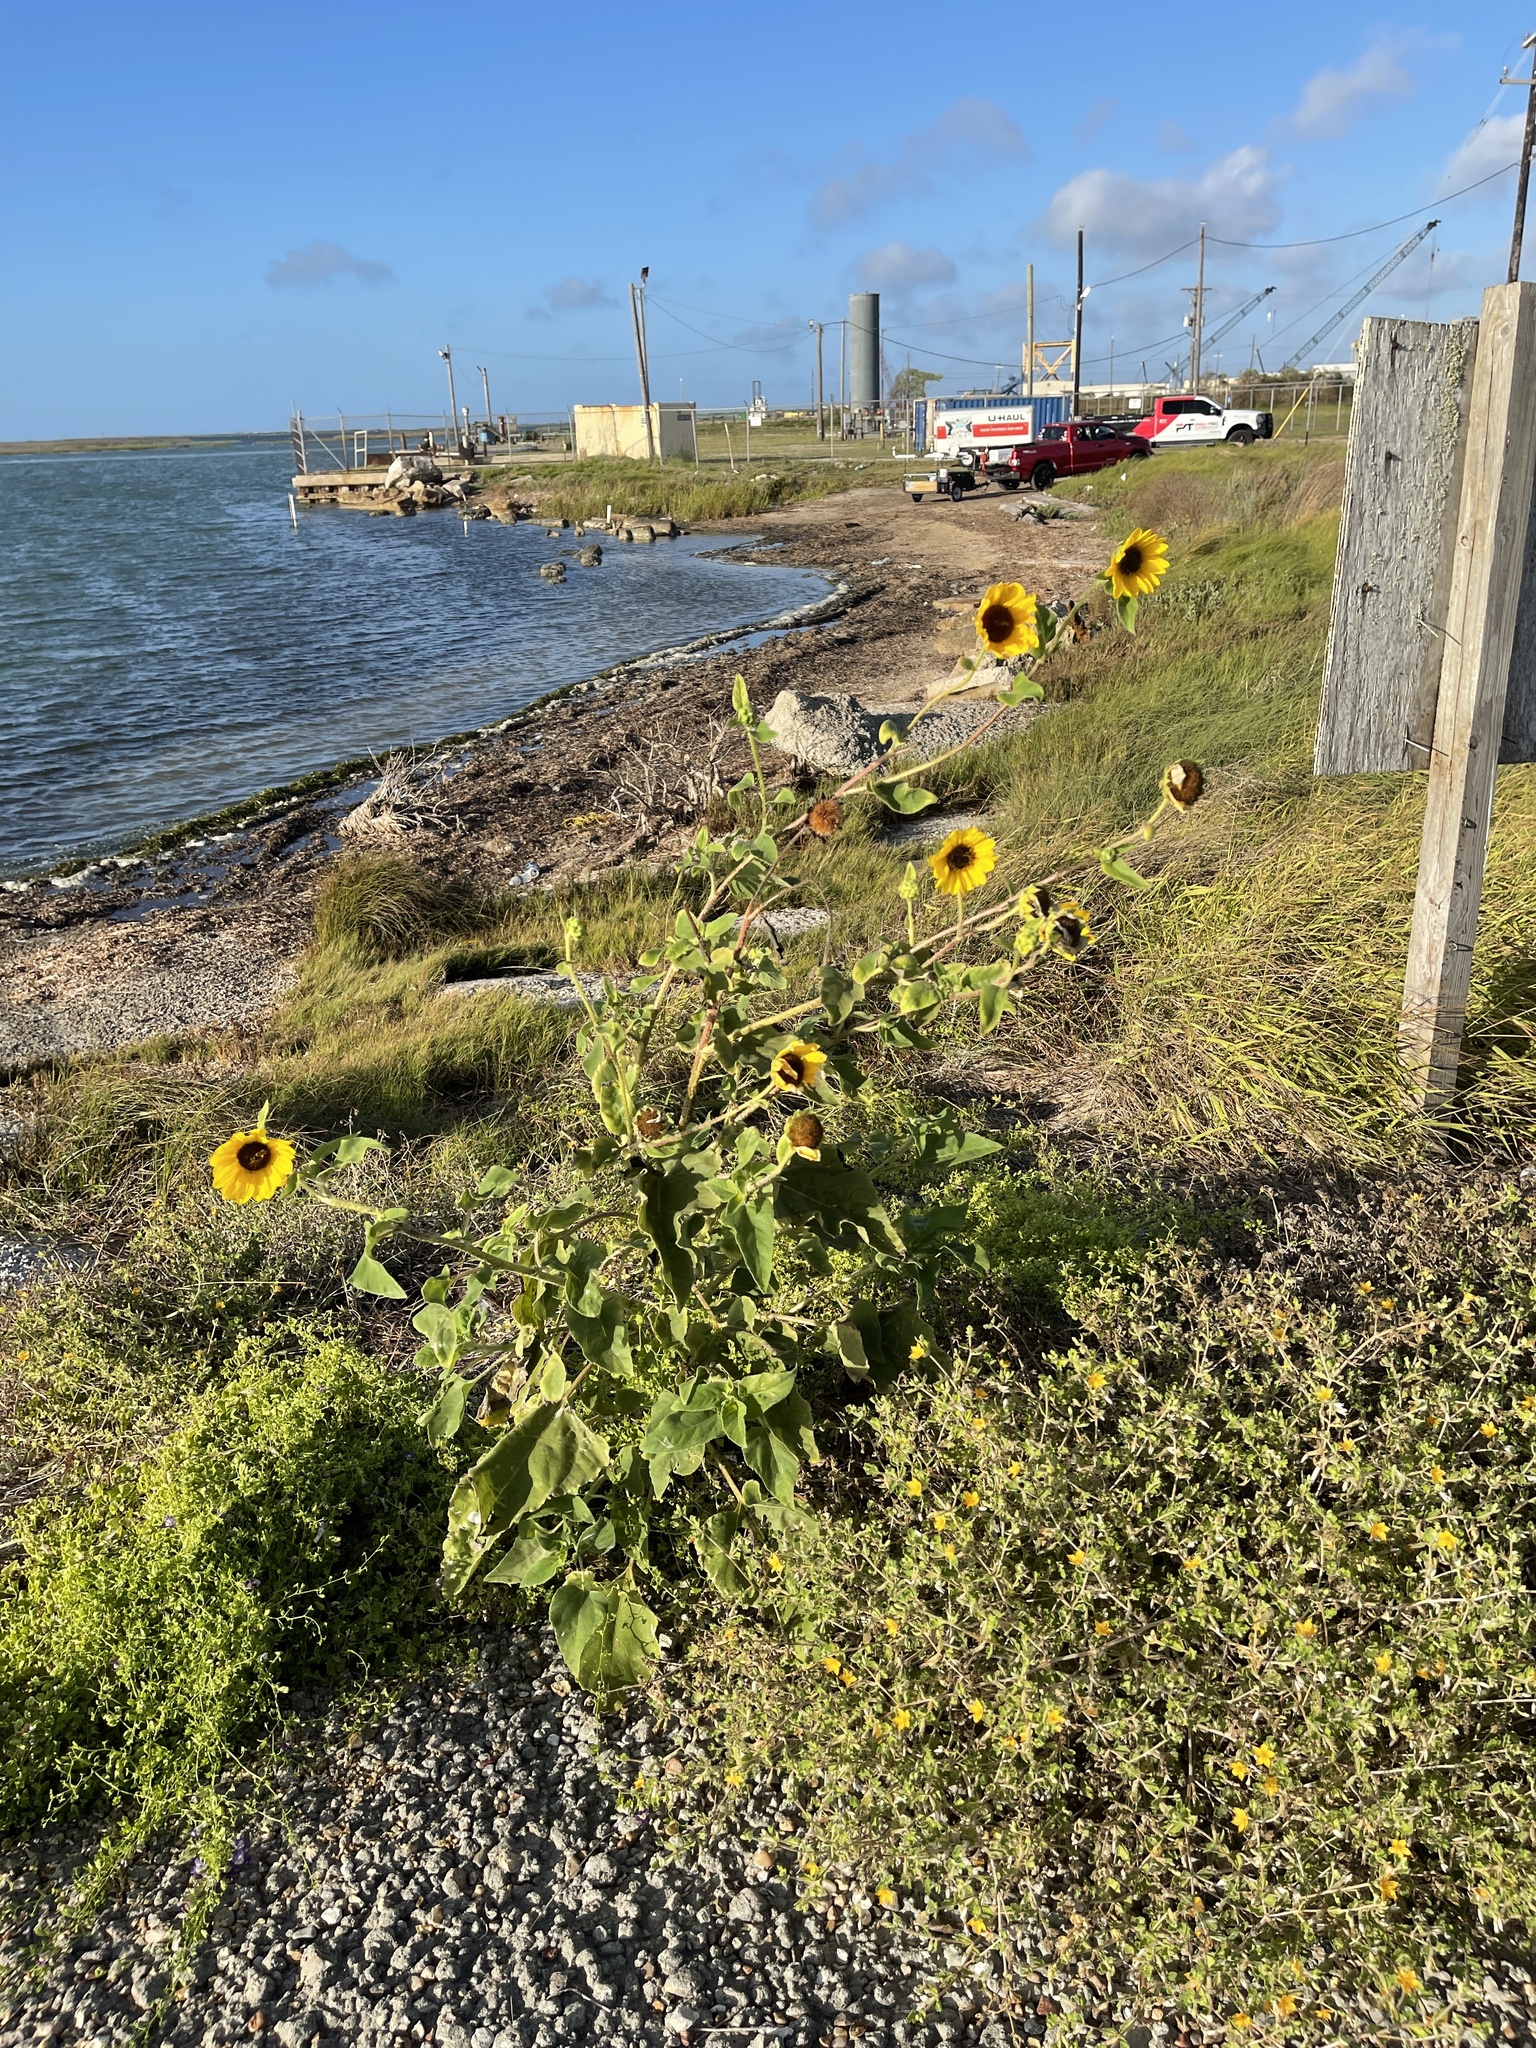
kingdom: Plantae
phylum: Tracheophyta
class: Magnoliopsida
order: Asterales
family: Asteraceae
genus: Helianthus
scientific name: Helianthus annuus
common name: Sunflower
